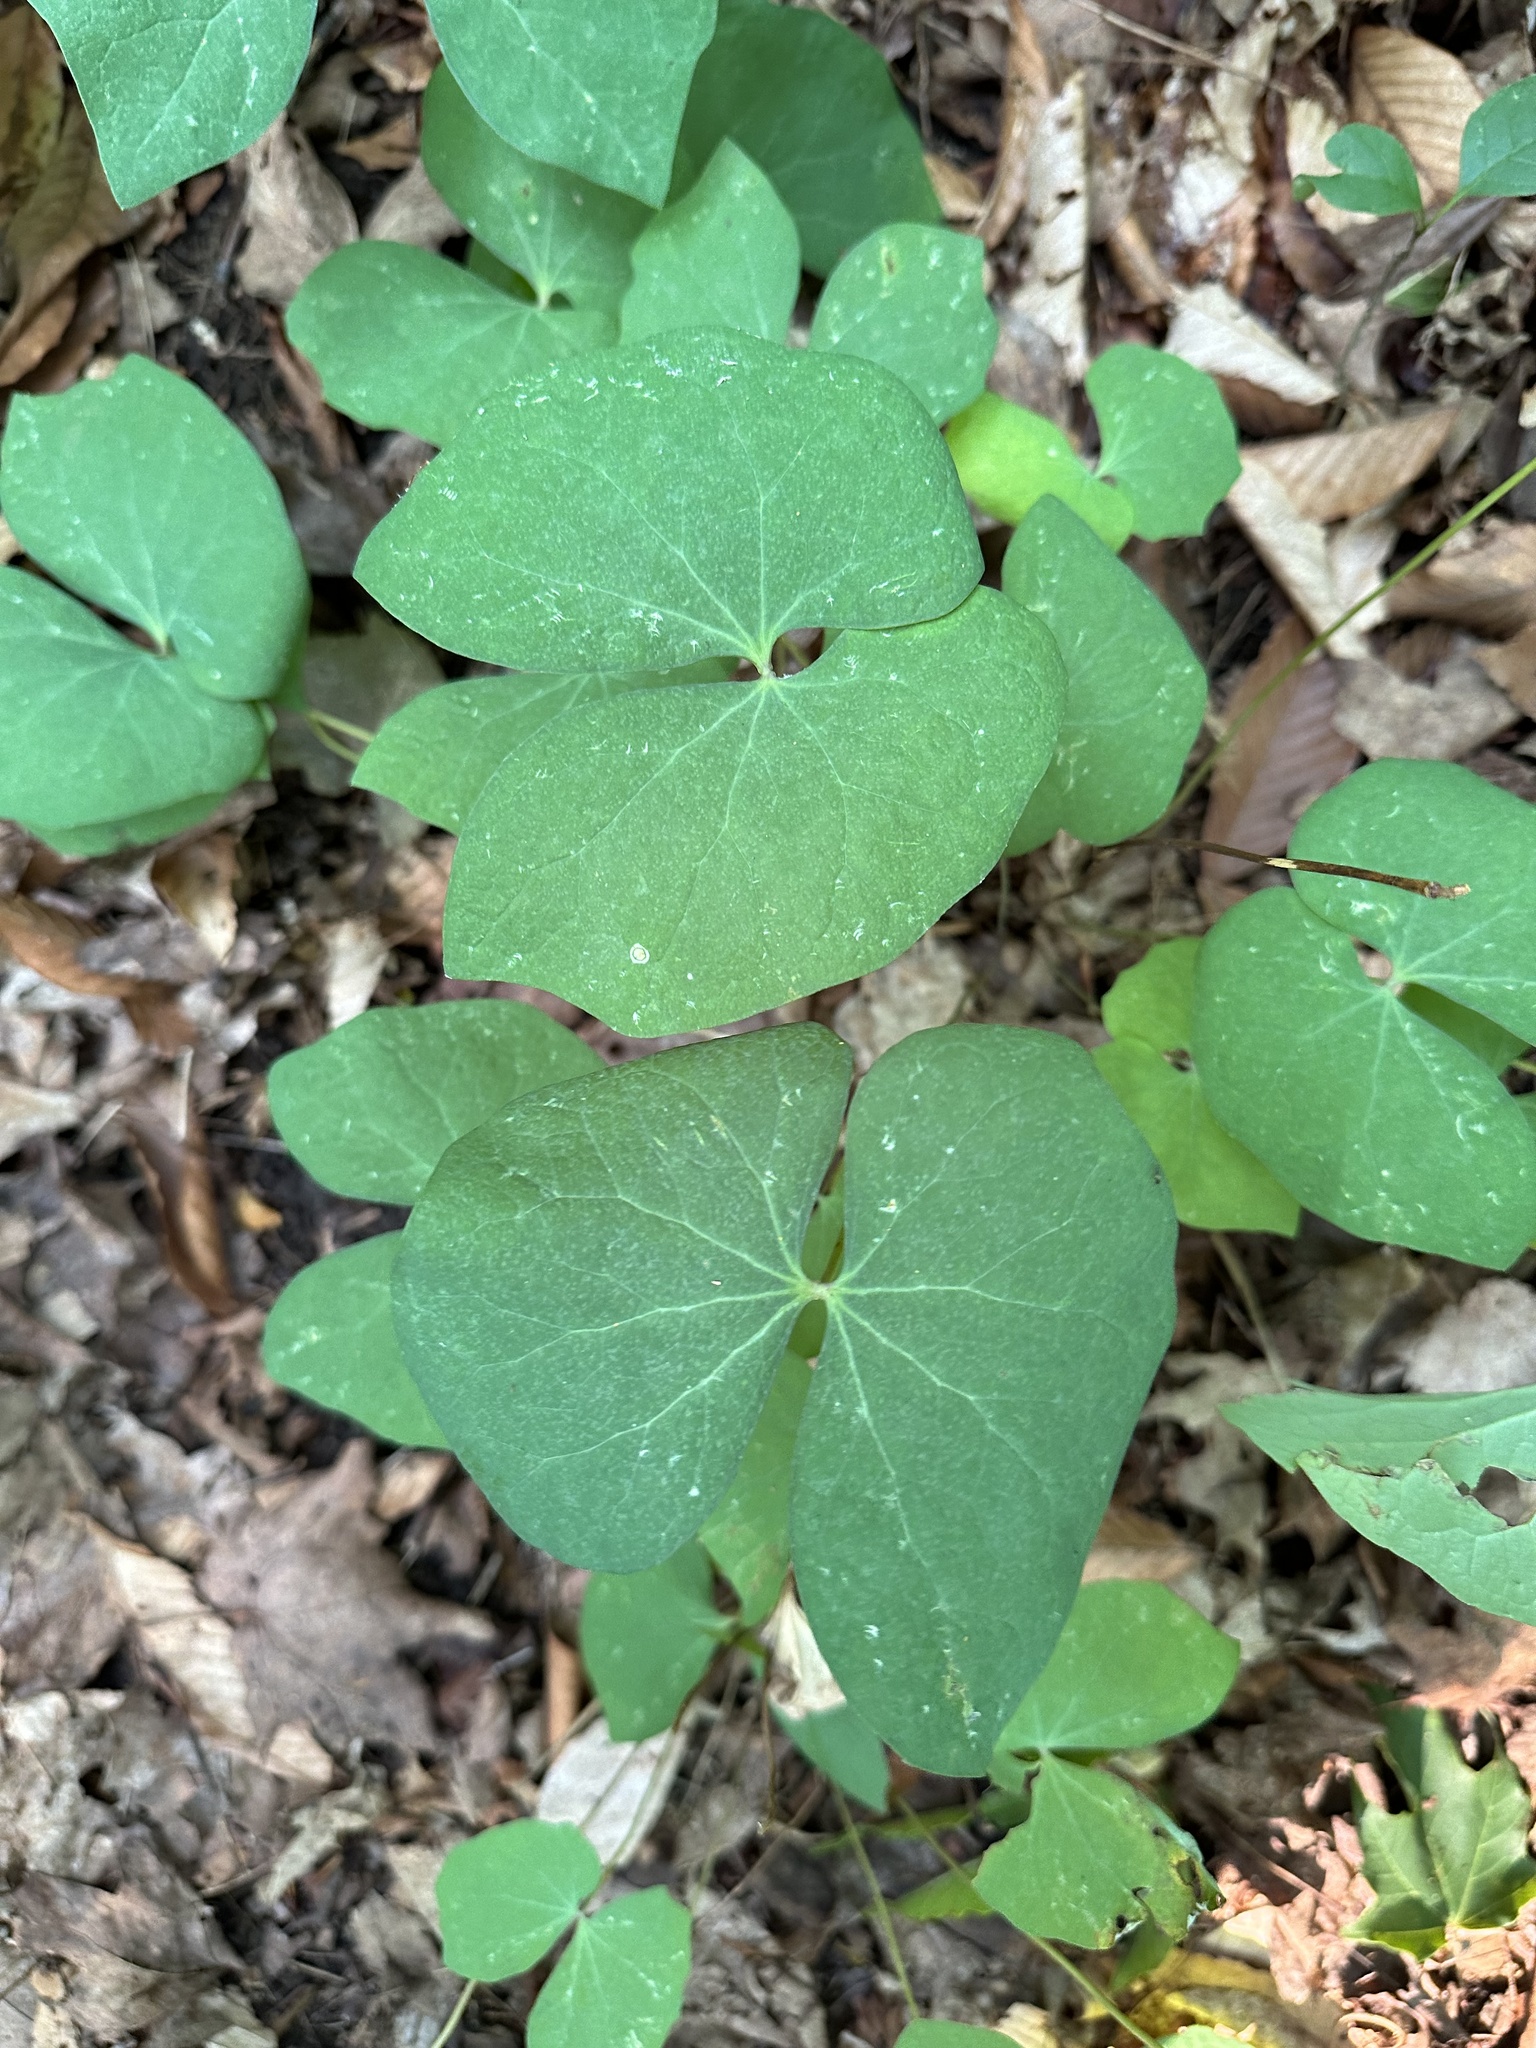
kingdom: Plantae
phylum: Tracheophyta
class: Magnoliopsida
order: Ranunculales
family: Berberidaceae
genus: Jeffersonia
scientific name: Jeffersonia diphylla
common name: Rheumatism-root
